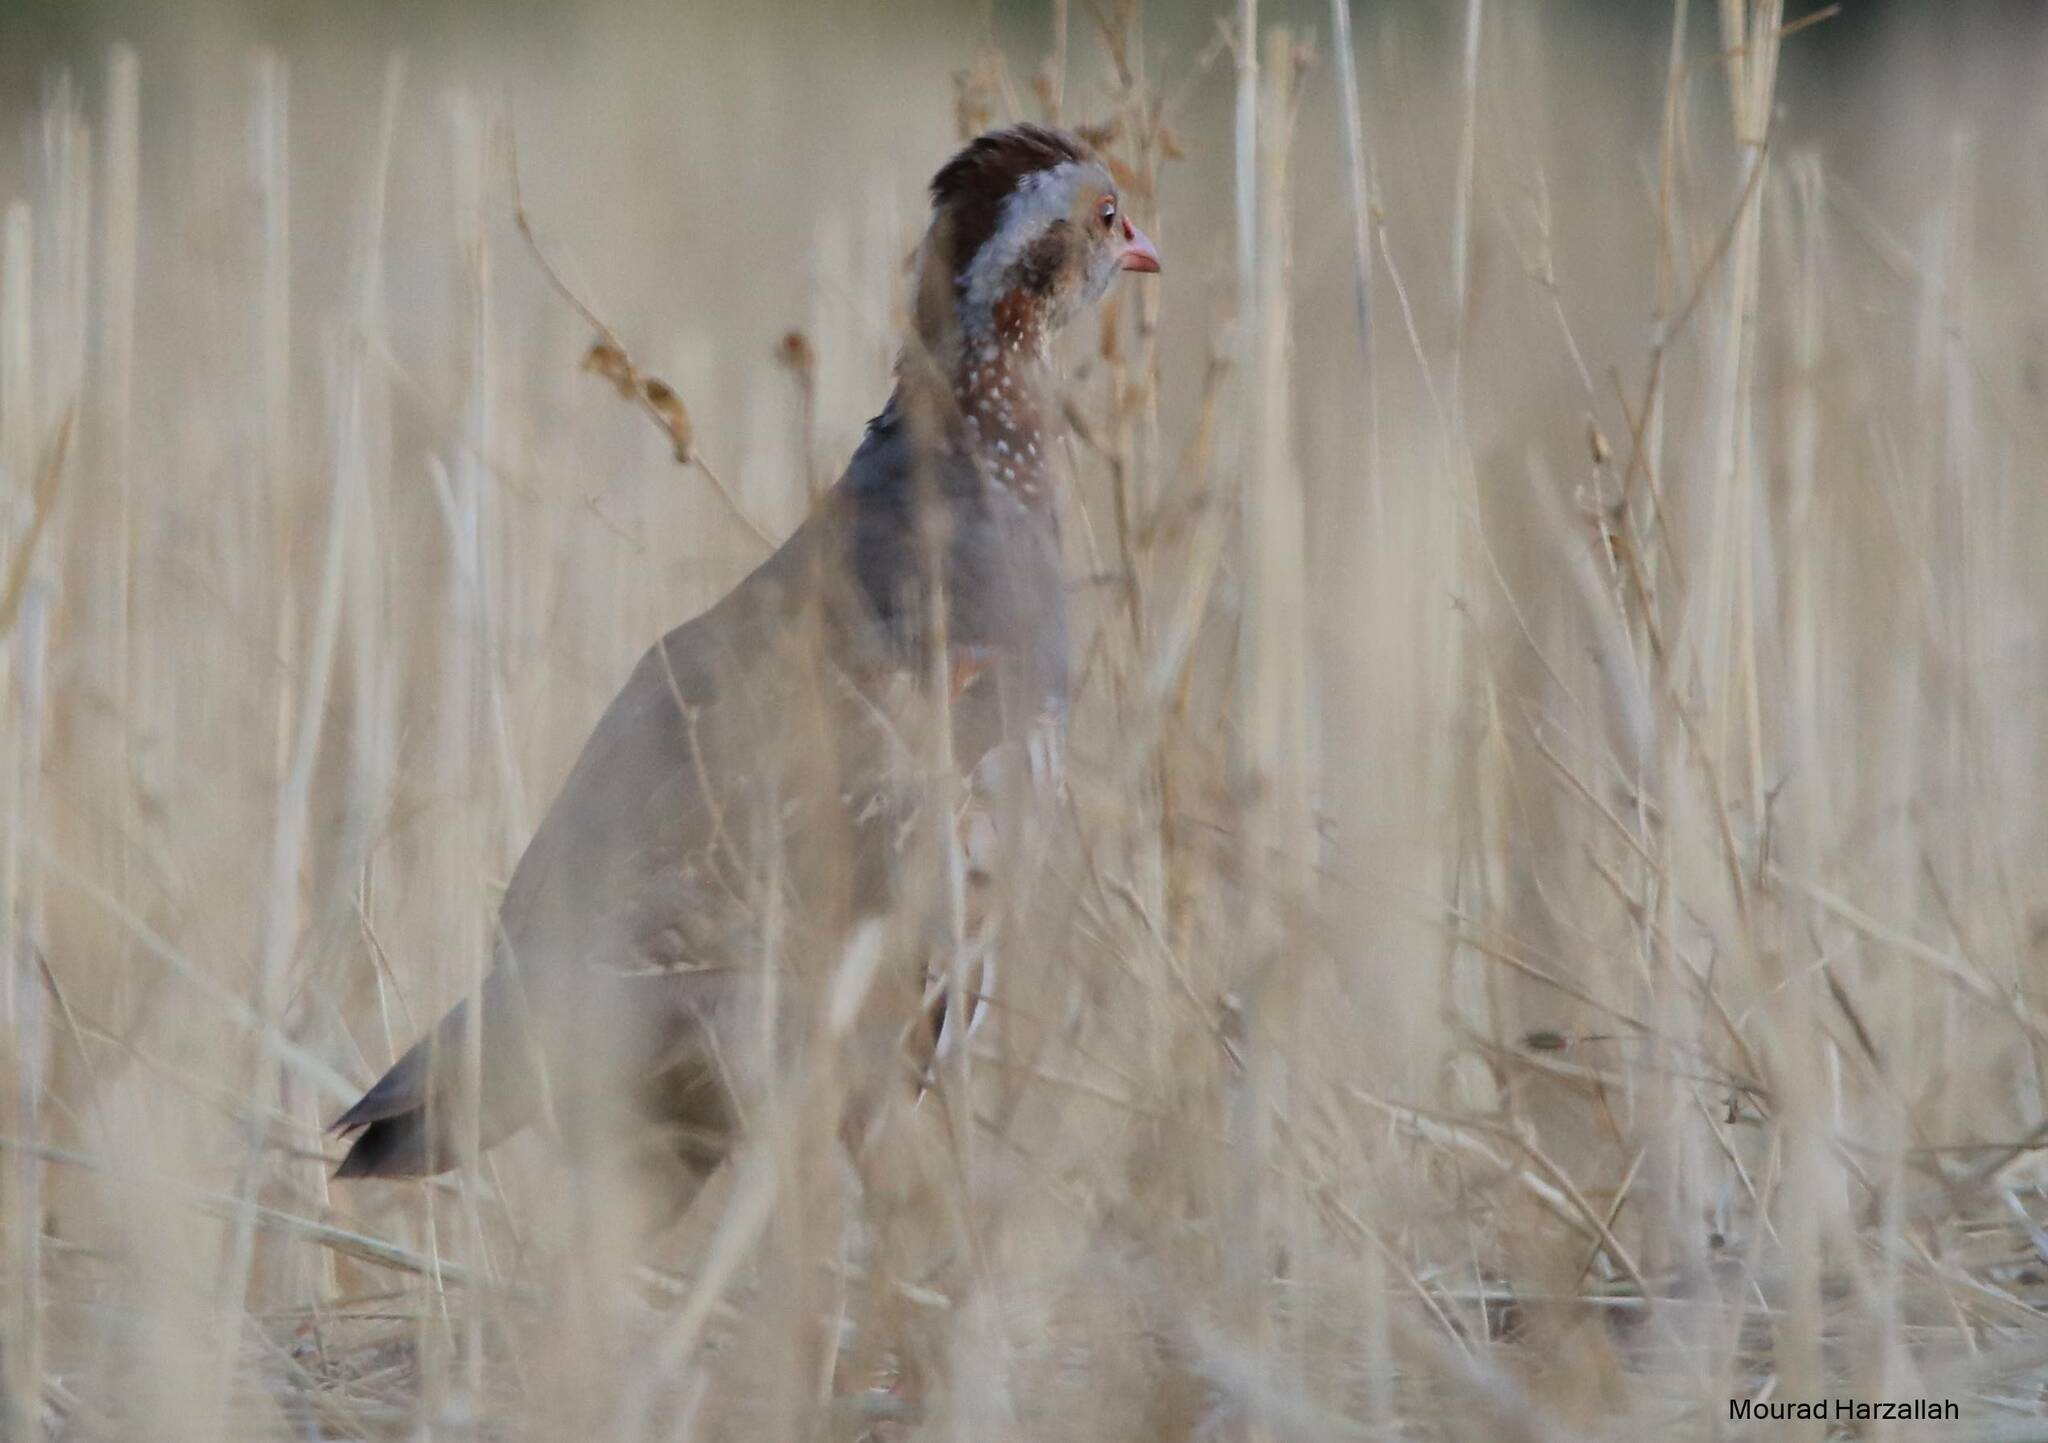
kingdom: Animalia
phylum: Chordata
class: Aves
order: Galliformes
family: Phasianidae
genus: Alectoris
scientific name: Alectoris barbara
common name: Barbary partridge
